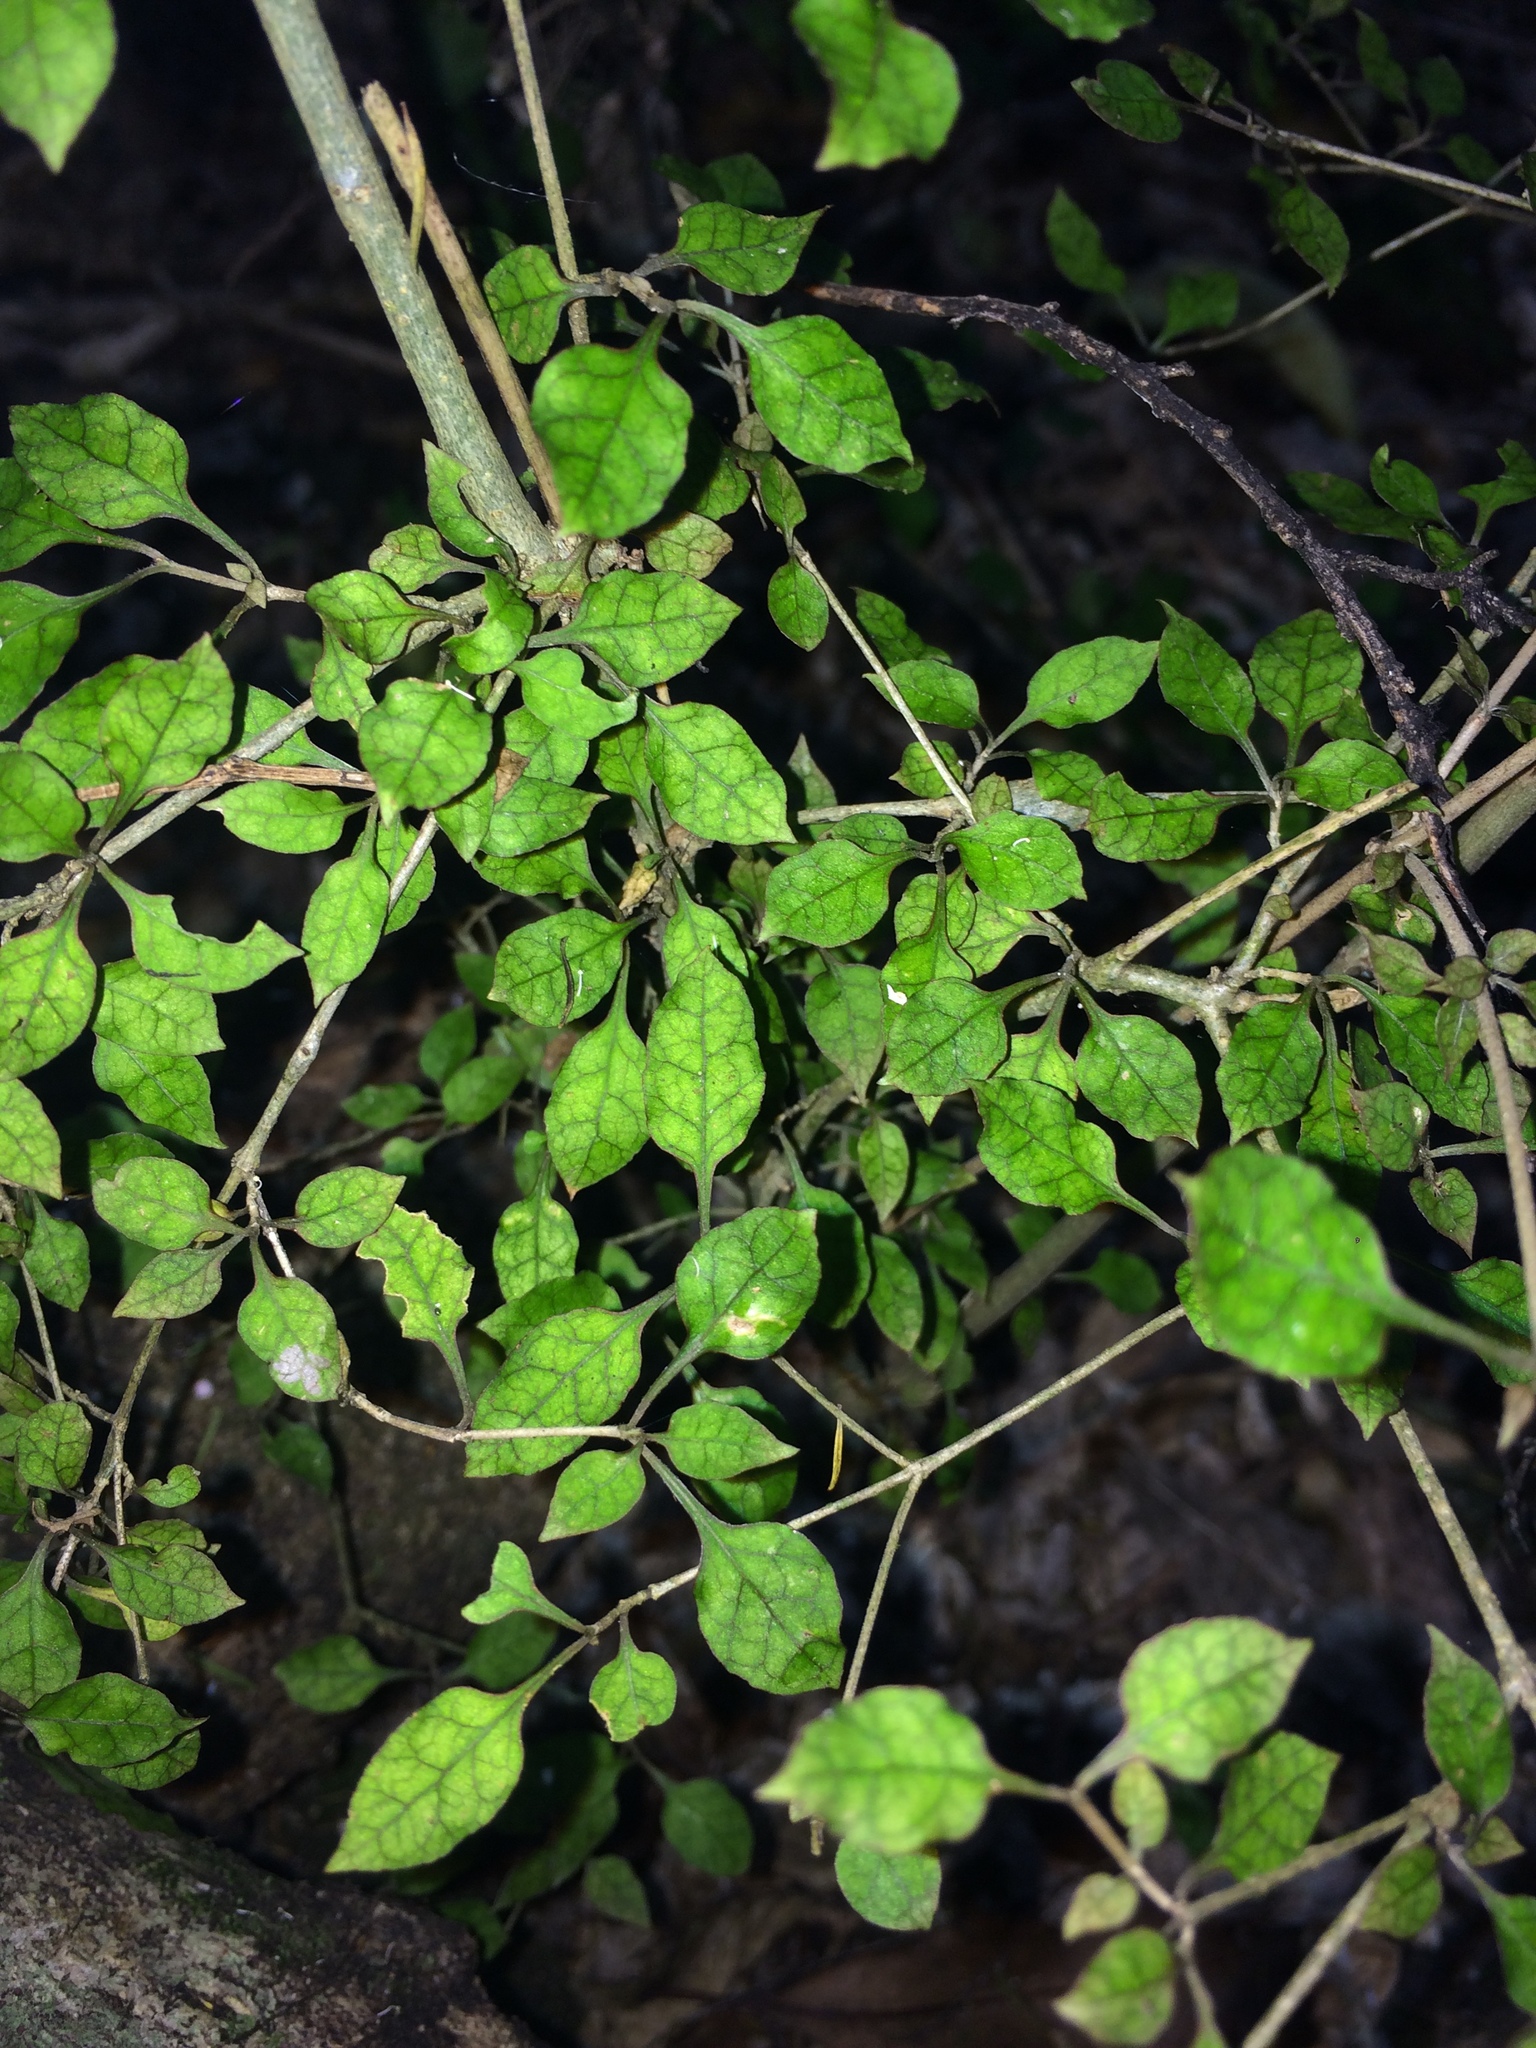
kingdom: Plantae
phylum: Tracheophyta
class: Magnoliopsida
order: Gentianales
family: Rubiaceae
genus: Coprosma
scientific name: Coprosma areolata
